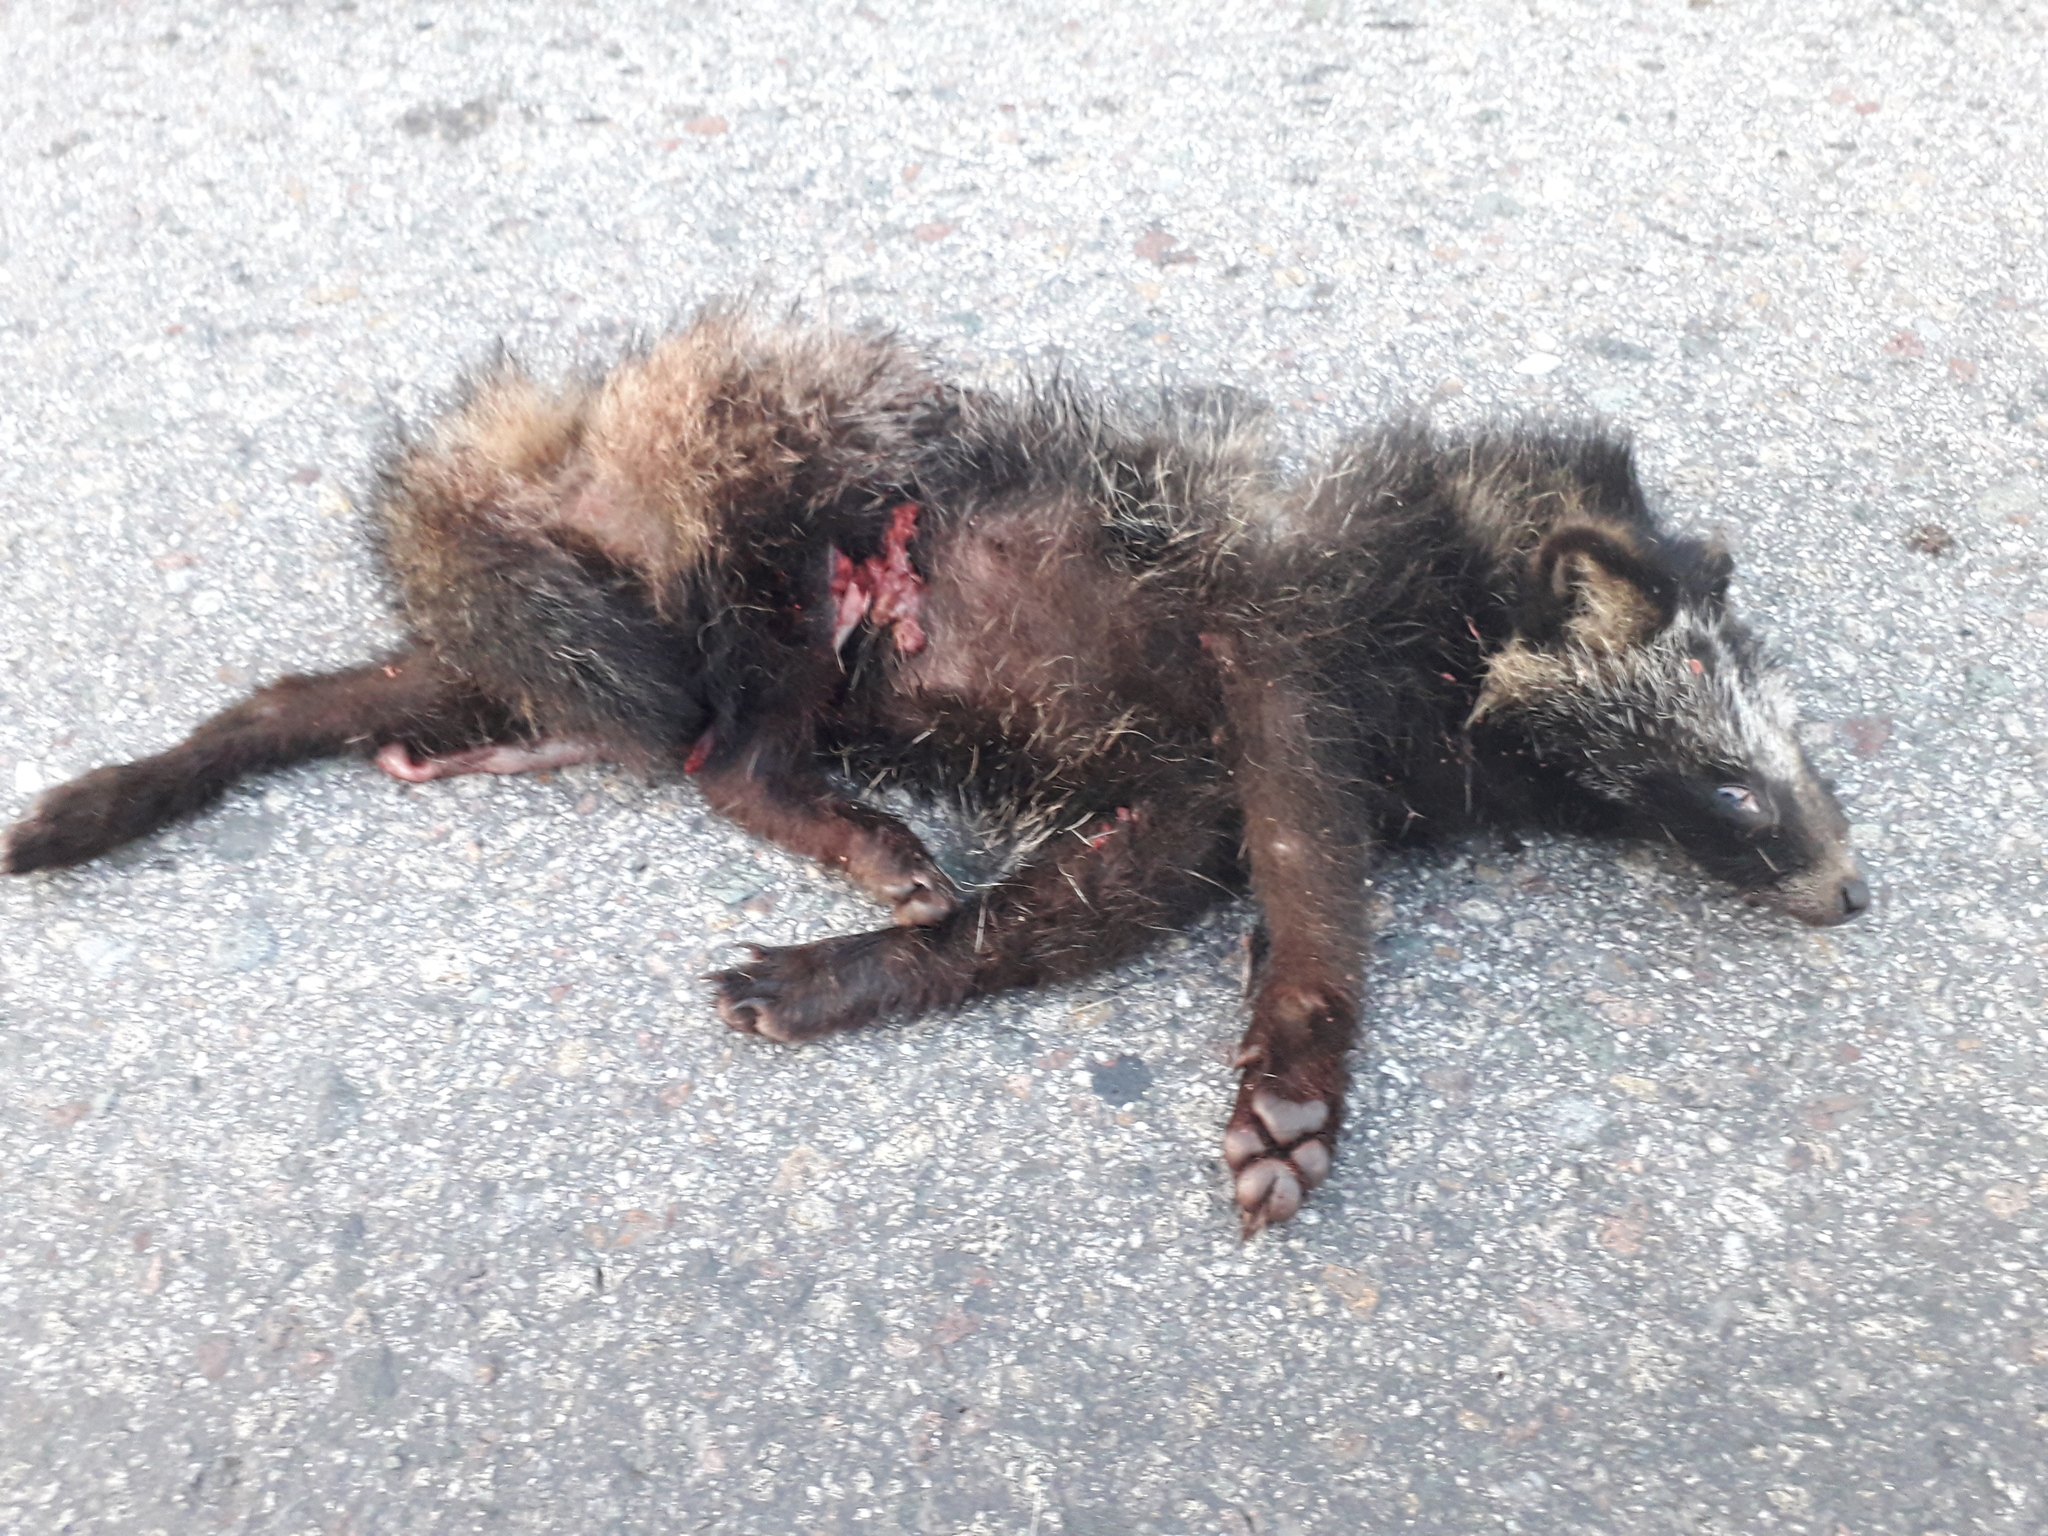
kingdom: Animalia
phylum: Chordata
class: Mammalia
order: Carnivora
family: Canidae
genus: Nyctereutes
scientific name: Nyctereutes procyonoides
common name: Raccoon dog
